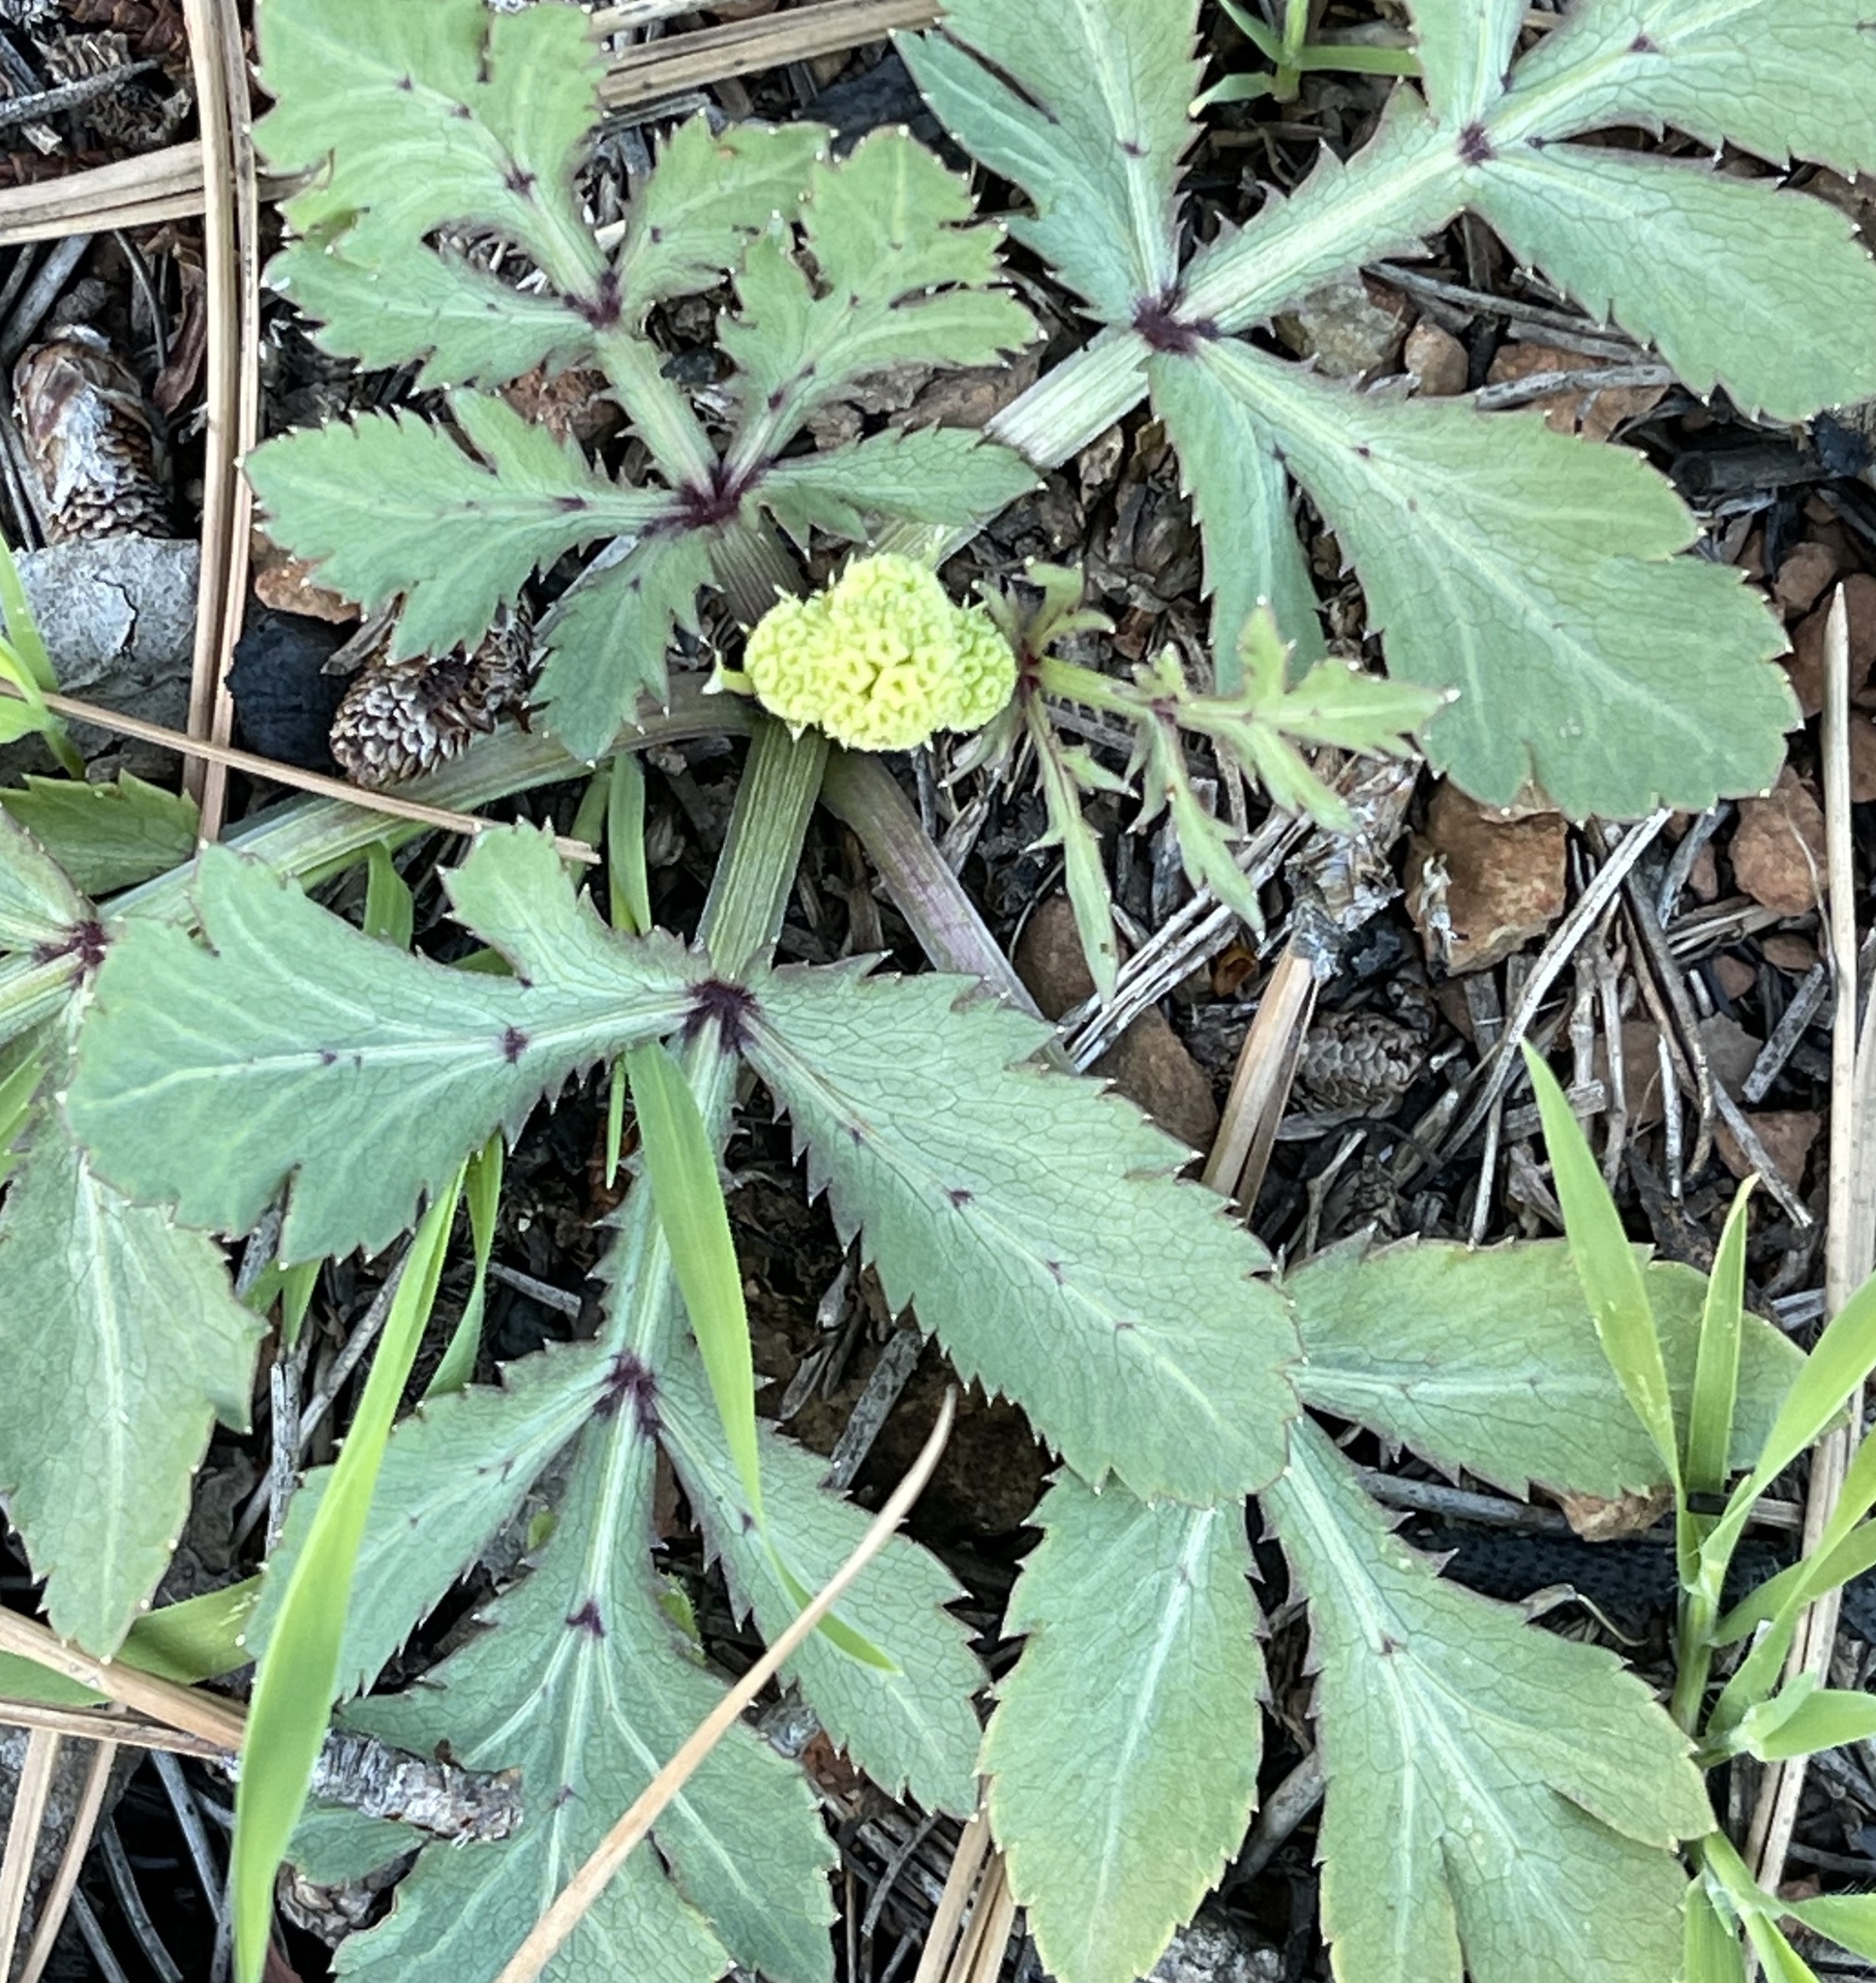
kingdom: Plantae
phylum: Tracheophyta
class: Magnoliopsida
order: Apiales
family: Apiaceae
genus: Sanicula
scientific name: Sanicula bipinnatifida
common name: Shoe-buttons
